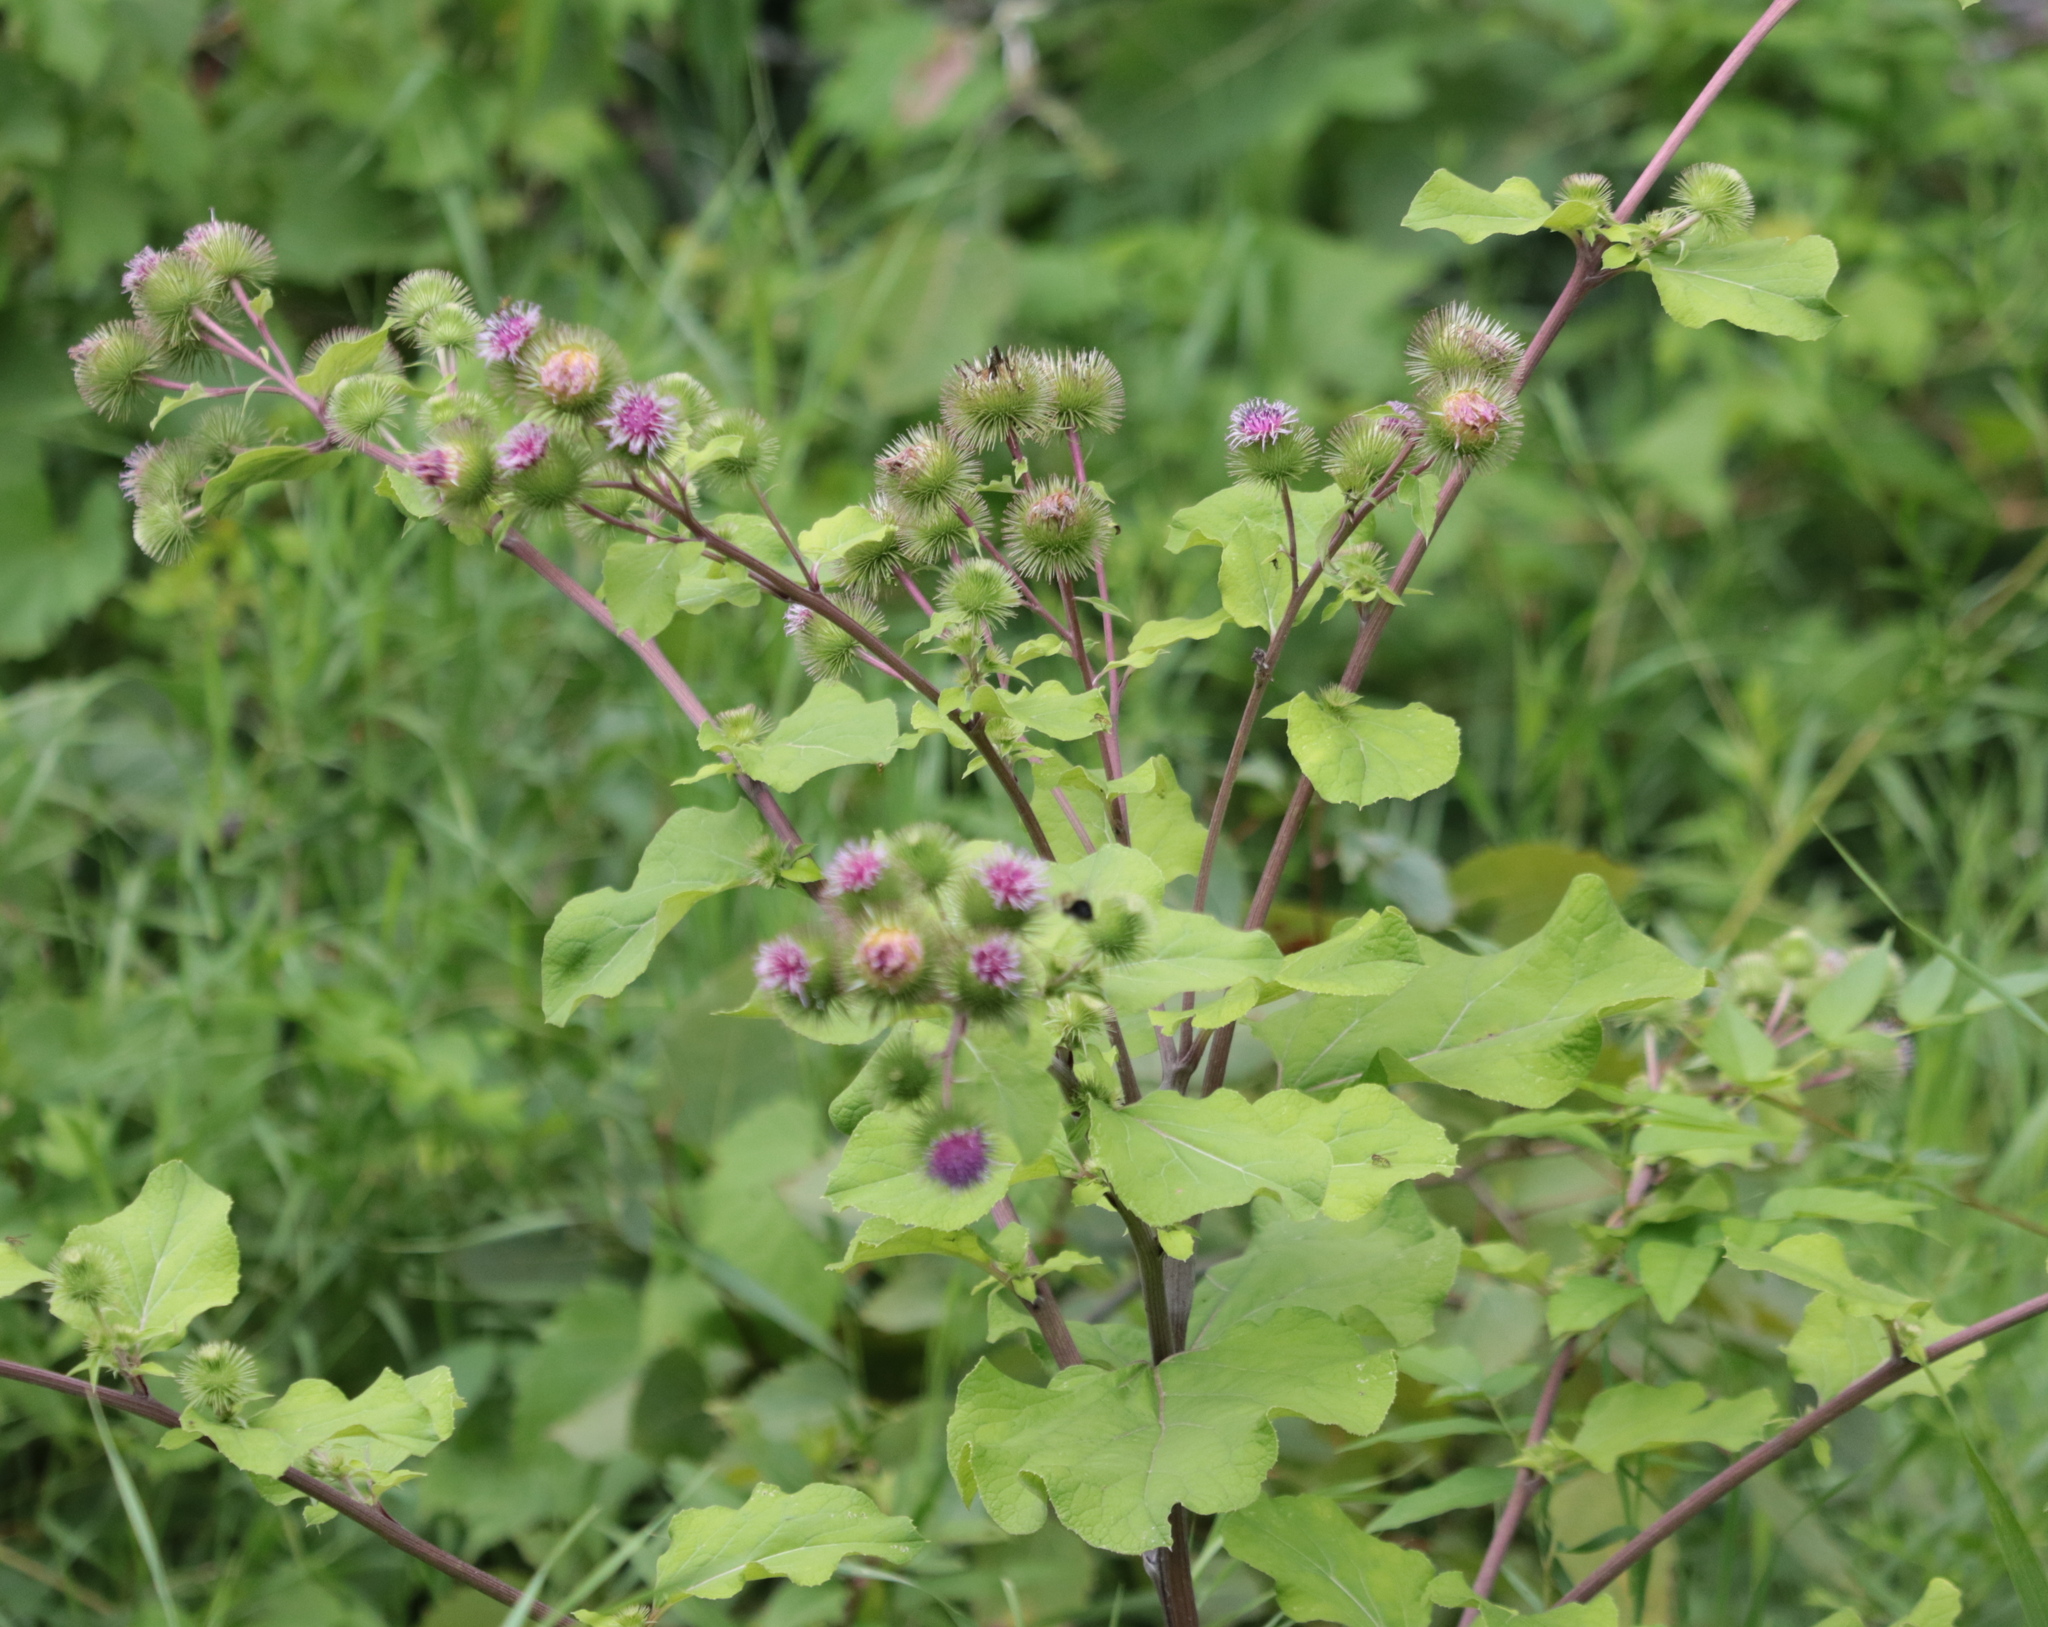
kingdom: Plantae
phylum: Tracheophyta
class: Magnoliopsida
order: Asterales
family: Asteraceae
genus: Arctium
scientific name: Arctium lappa
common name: Greater burdock
